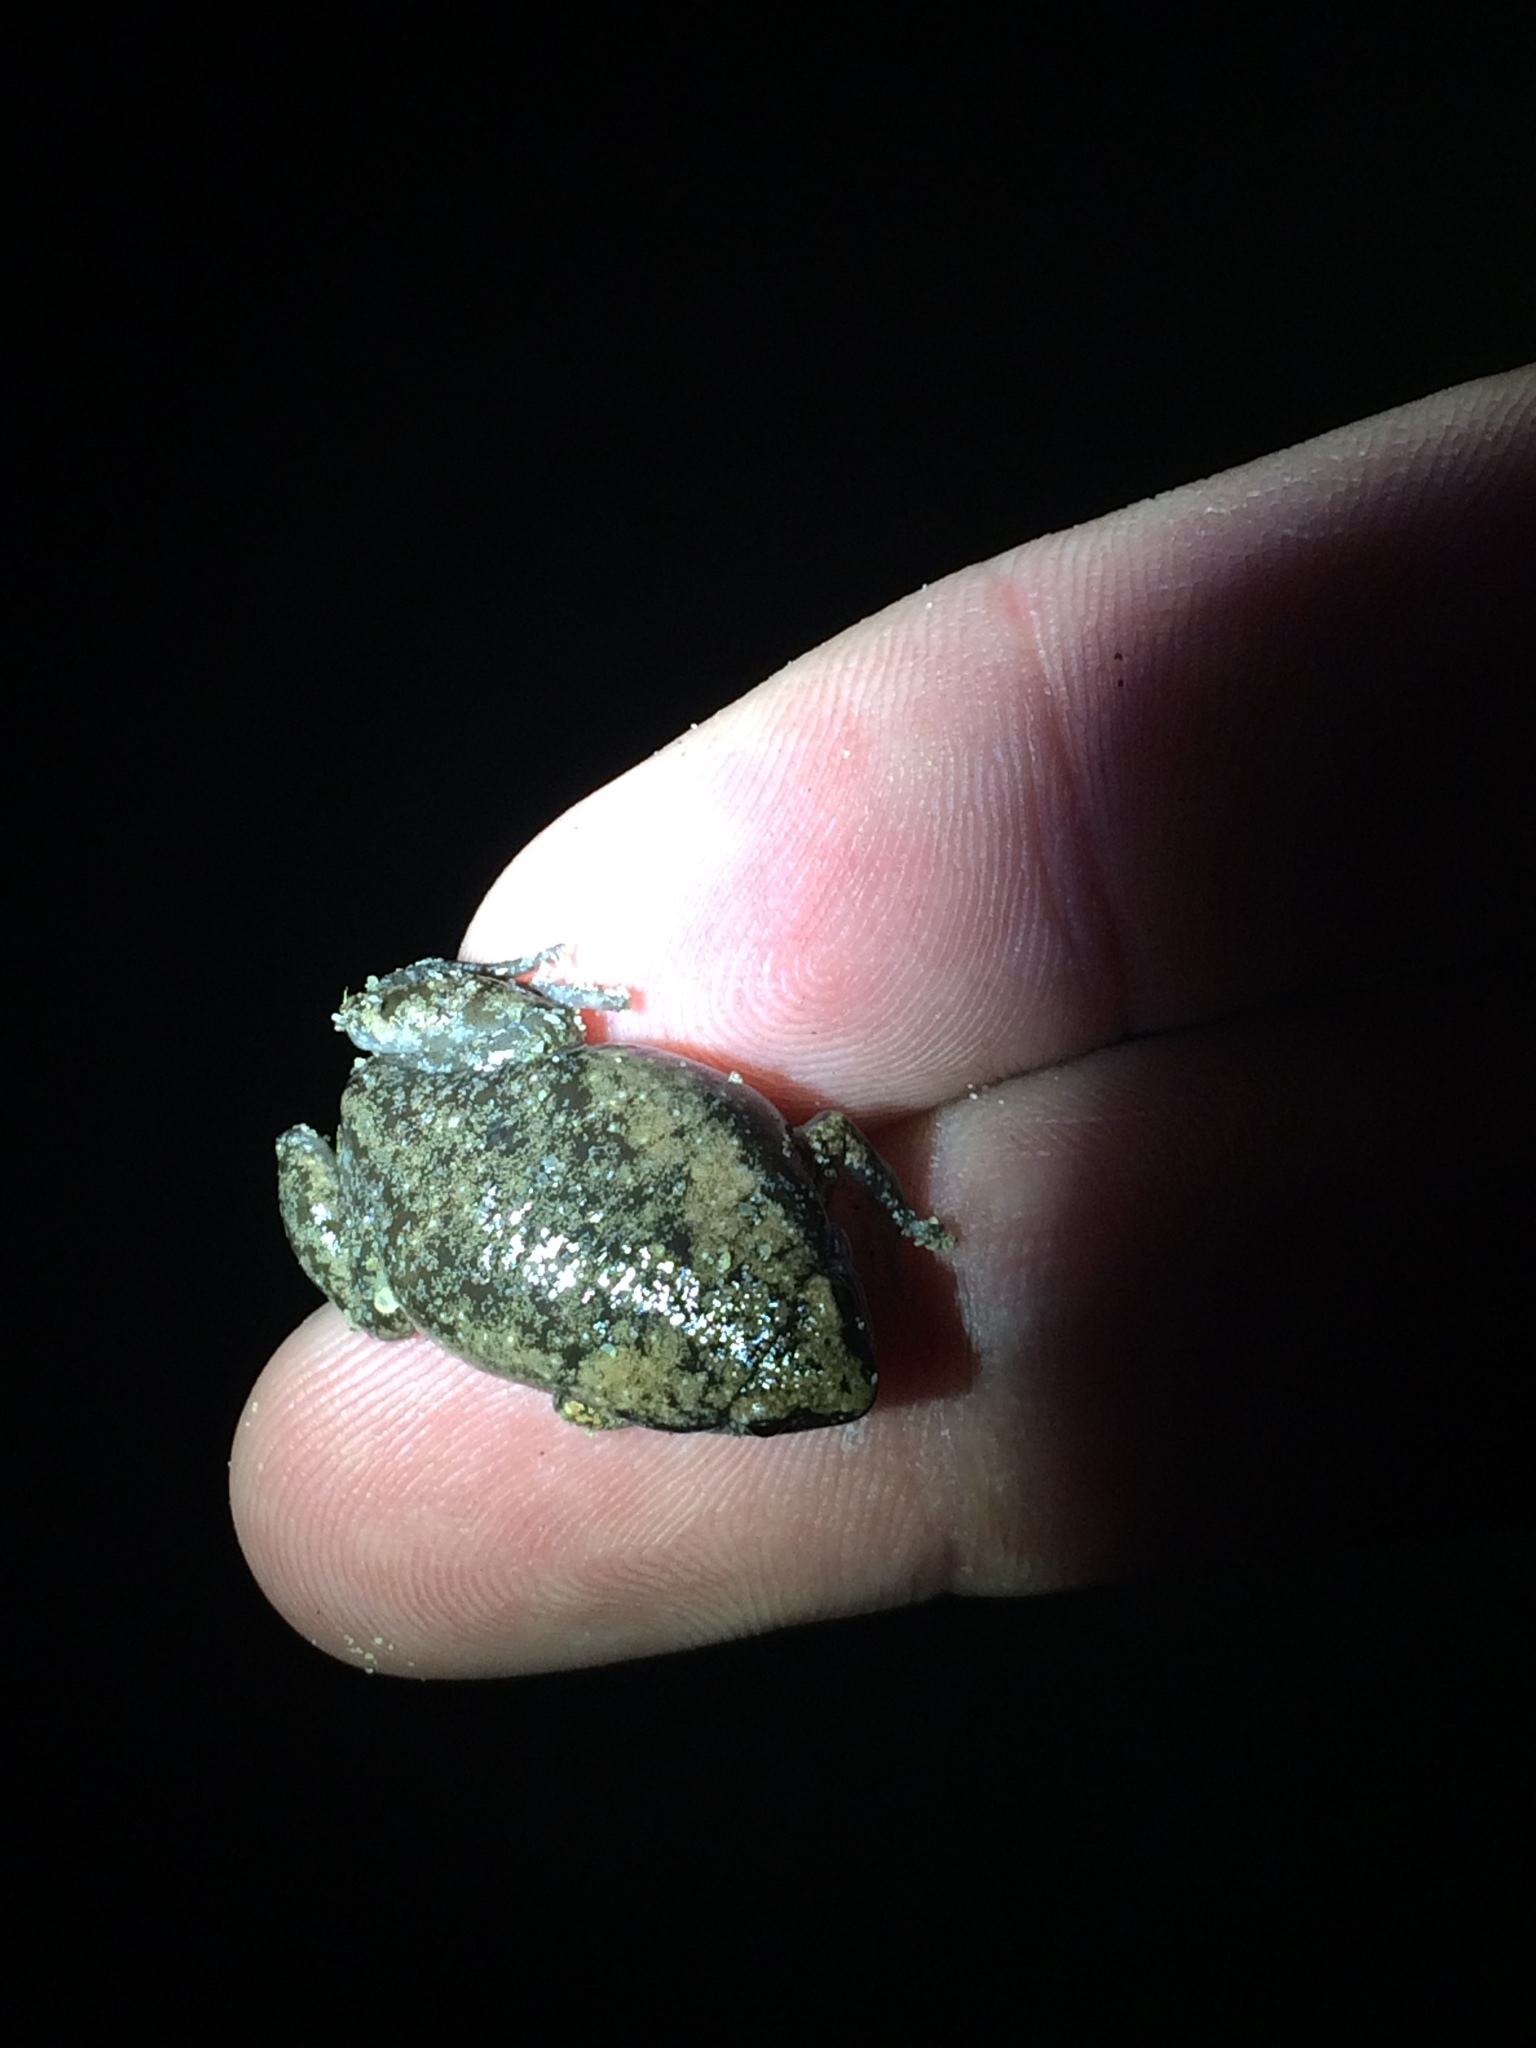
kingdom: Animalia
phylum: Chordata
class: Amphibia
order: Anura
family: Microhylidae
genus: Gastrophryne
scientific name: Gastrophryne carolinensis
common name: Eastern narrowmouth toad
